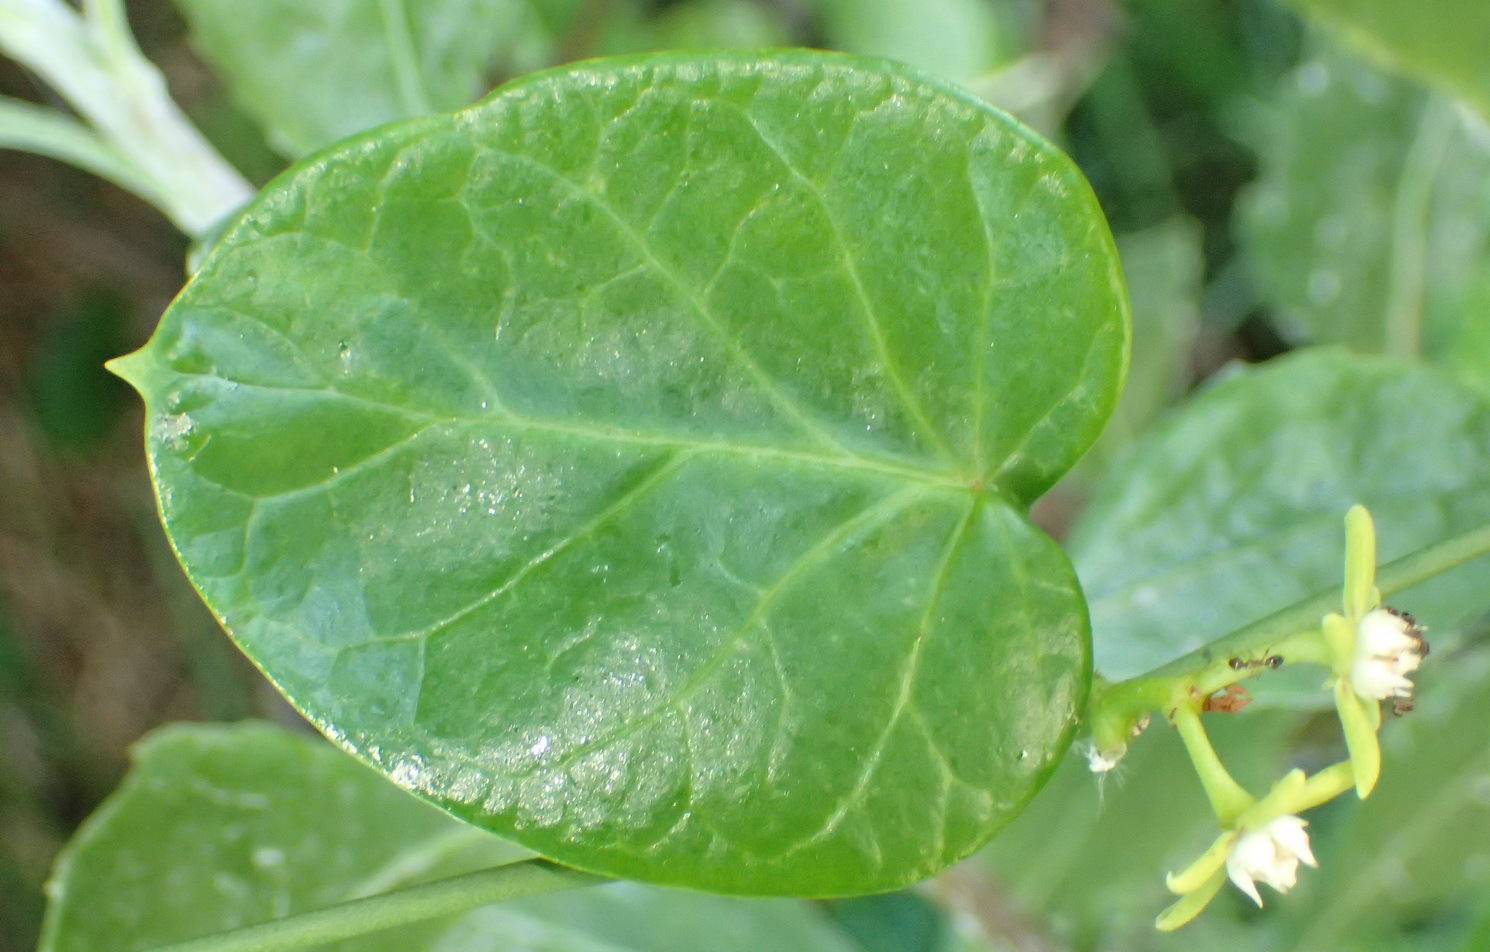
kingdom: Plantae
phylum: Tracheophyta
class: Magnoliopsida
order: Gentianales
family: Apocynaceae
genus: Cynanchum
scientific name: Cynanchum obtusifolium
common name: Monkey-rope
